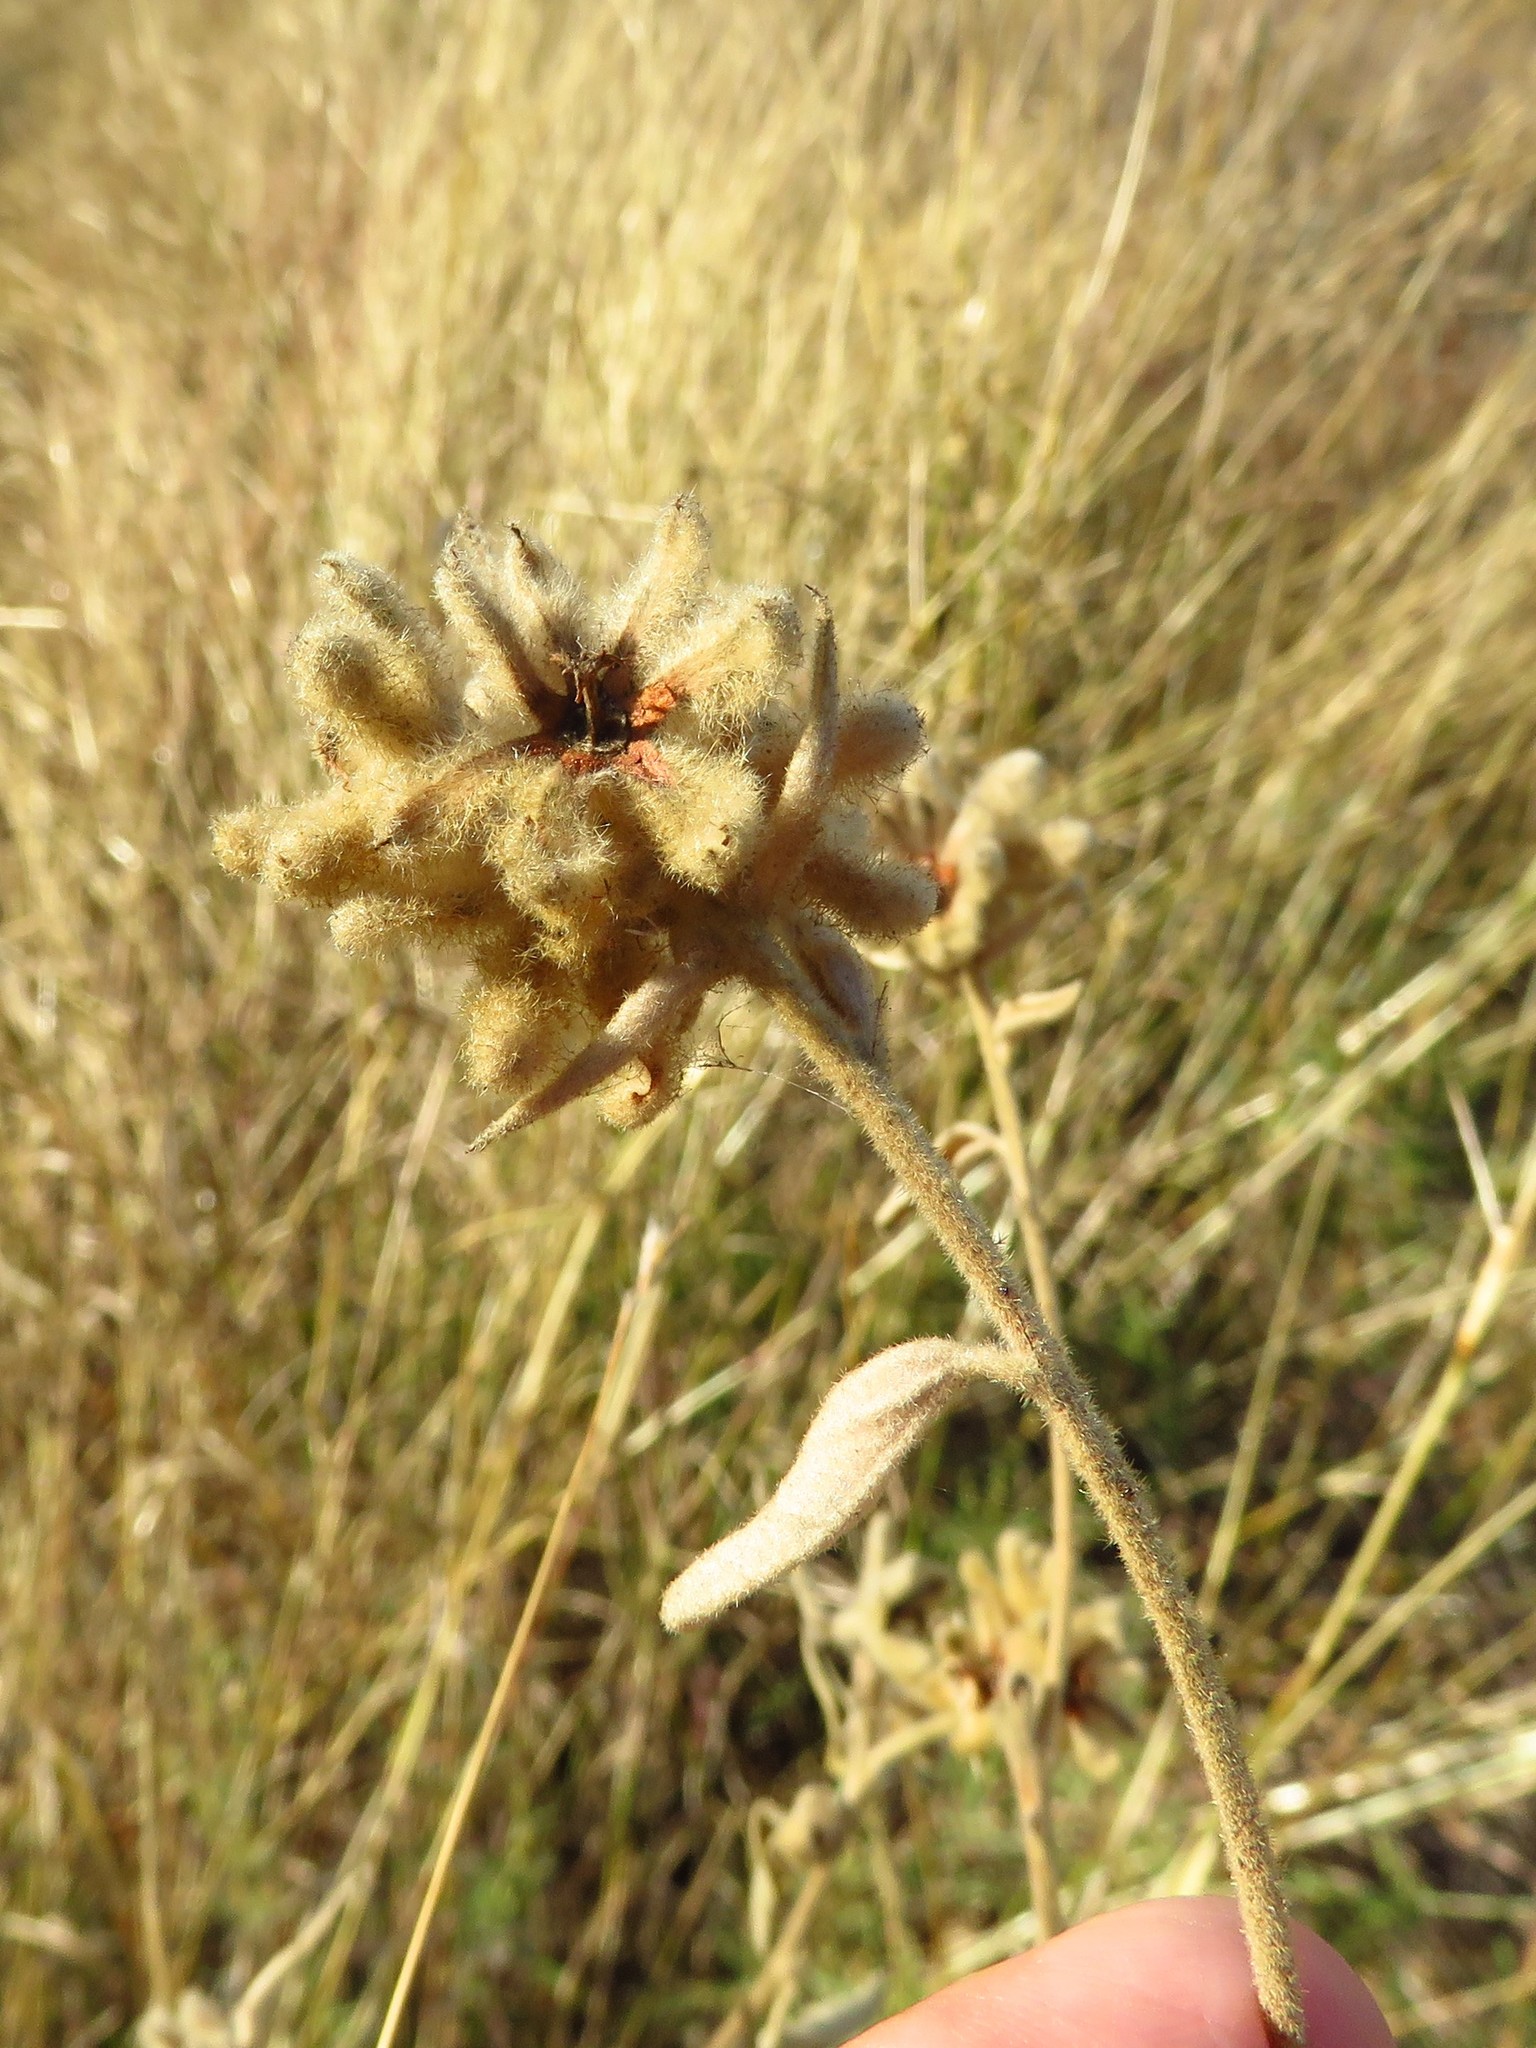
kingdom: Plantae
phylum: Tracheophyta
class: Magnoliopsida
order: Malpighiales
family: Euphorbiaceae
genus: Croton
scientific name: Croton lindheimeri
